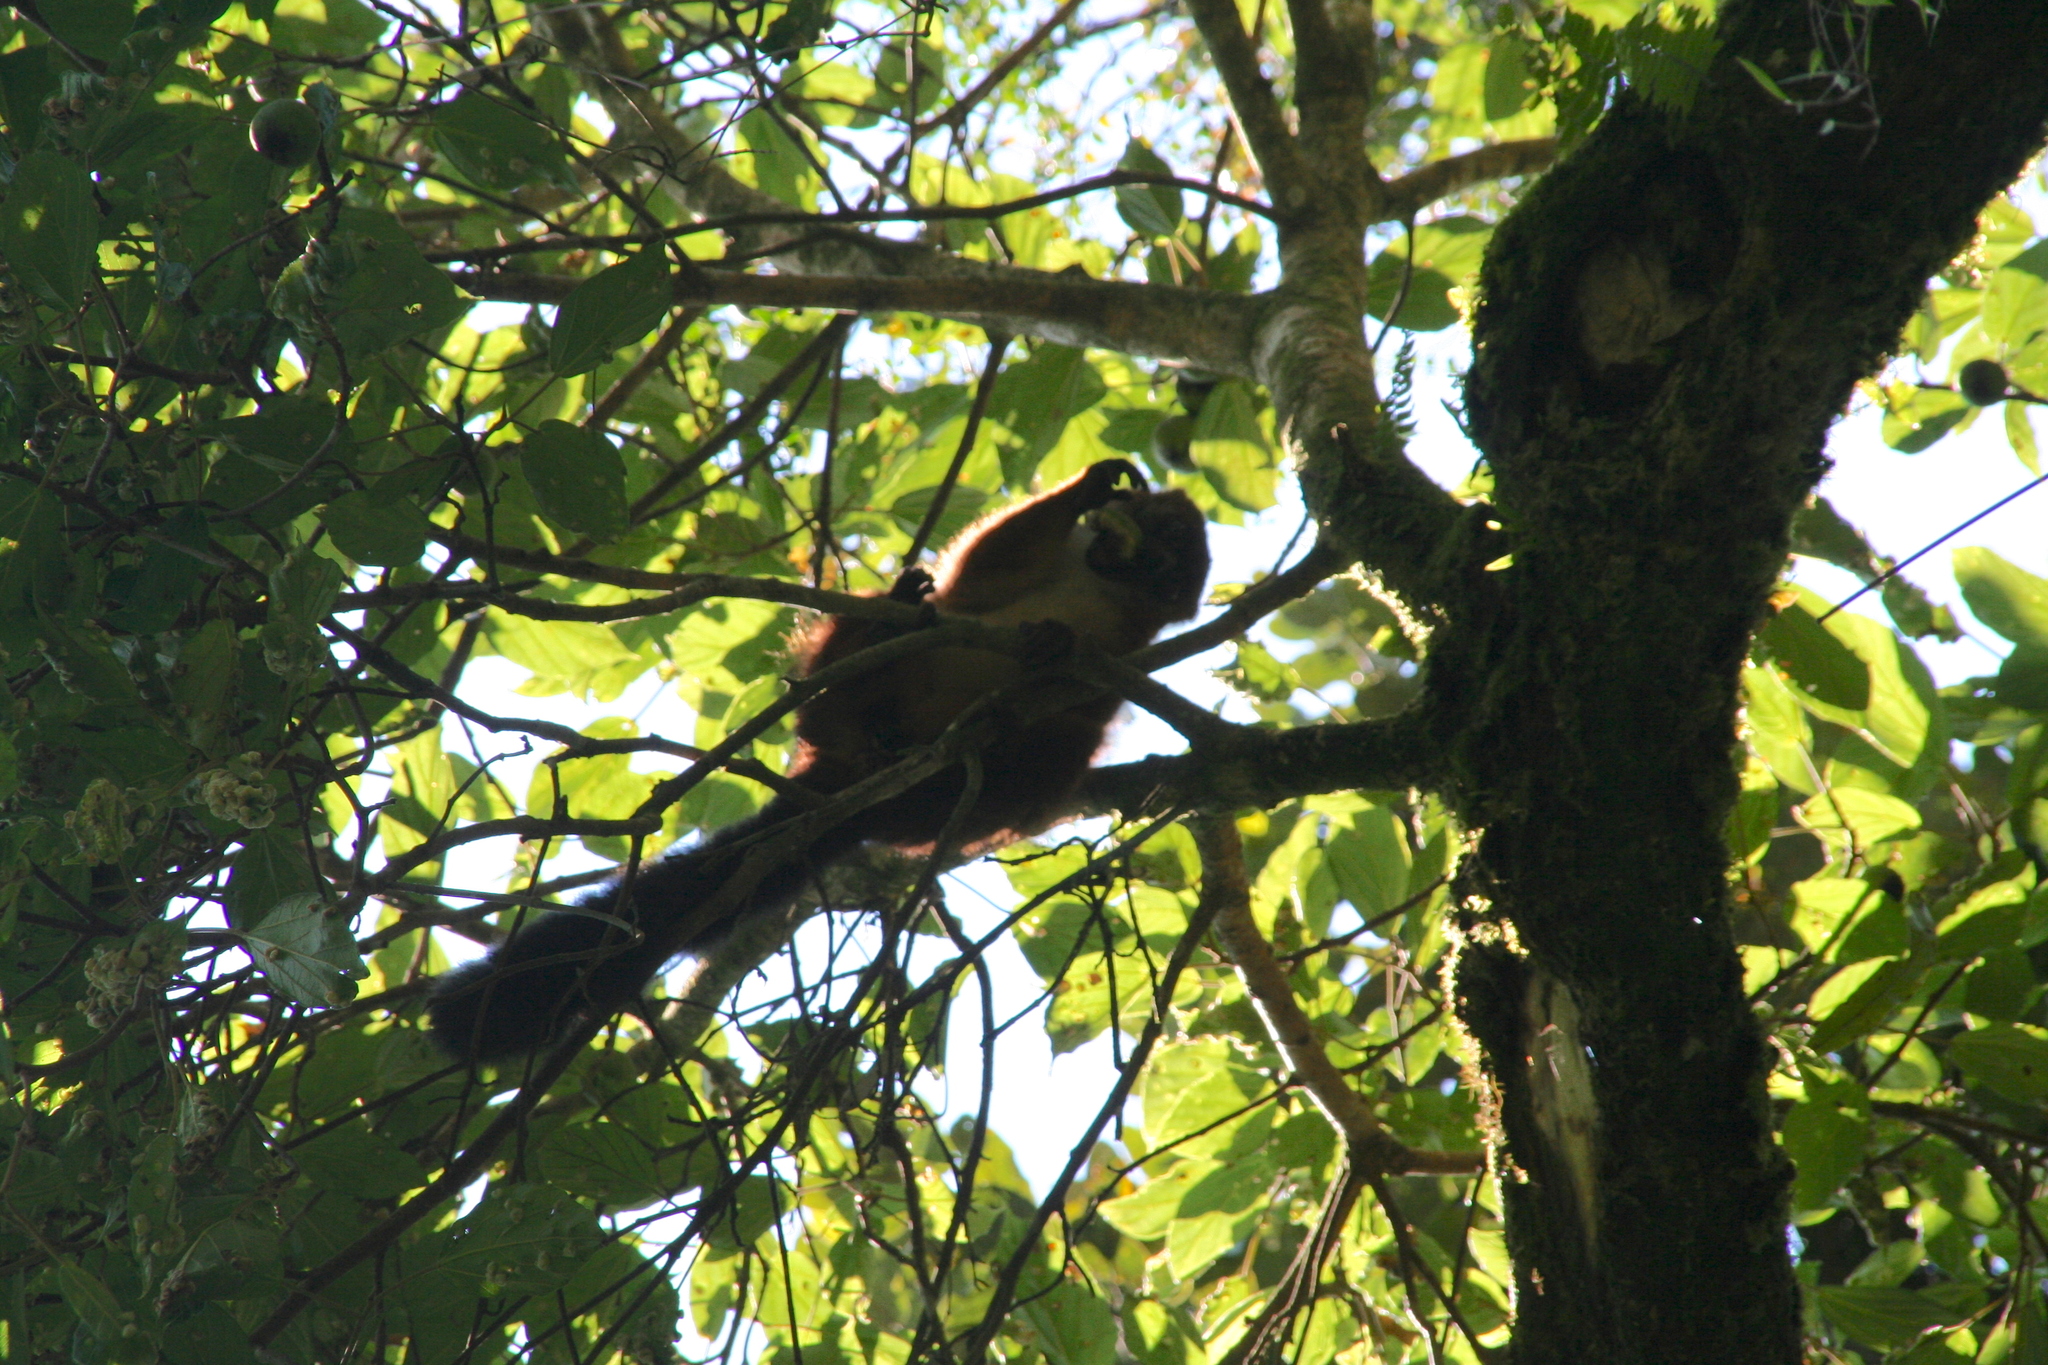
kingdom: Animalia
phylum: Chordata
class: Mammalia
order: Primates
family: Lemuridae
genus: Eulemur
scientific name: Eulemur rubriventer
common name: Red-bellied lemur
